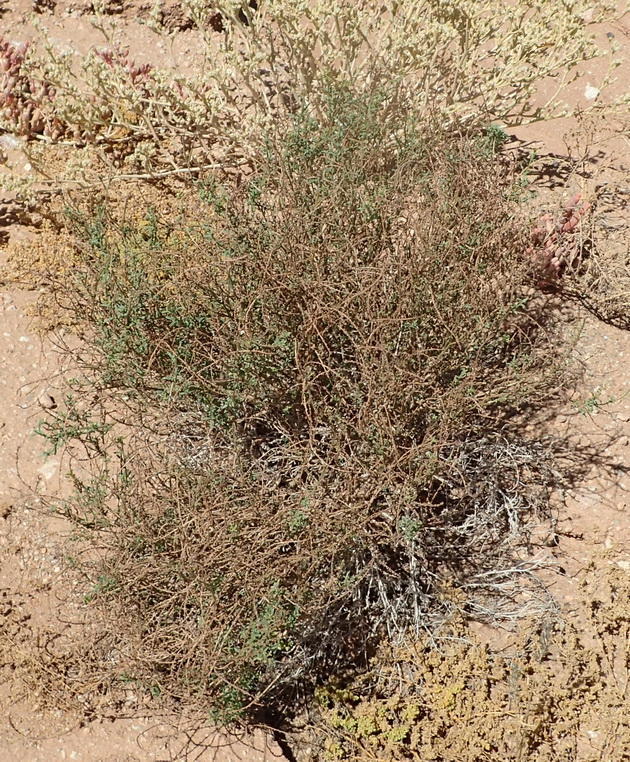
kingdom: Plantae
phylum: Tracheophyta
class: Magnoliopsida
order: Boraginales
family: Heliotropiaceae
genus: Heliotropium
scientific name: Heliotropium ciliatum
